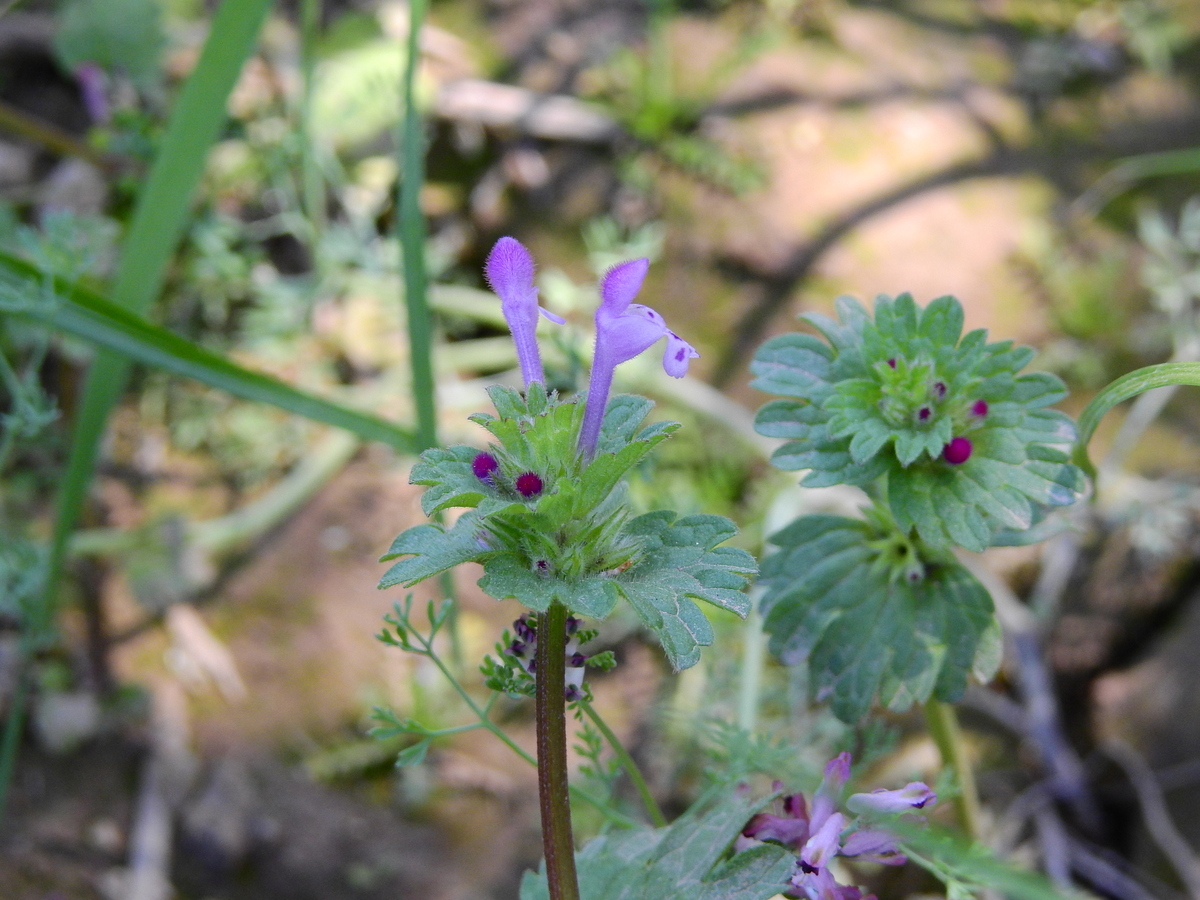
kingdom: Plantae
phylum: Tracheophyta
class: Magnoliopsida
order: Lamiales
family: Lamiaceae
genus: Lamium
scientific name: Lamium amplexicaule
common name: Henbit dead-nettle
